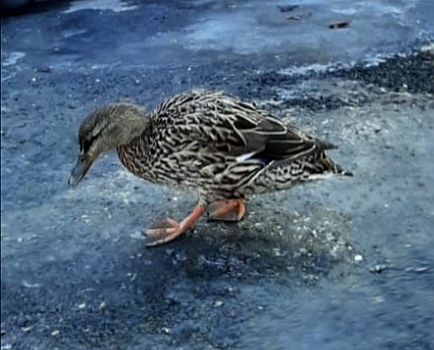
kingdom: Animalia
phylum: Chordata
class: Aves
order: Anseriformes
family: Anatidae
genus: Anas
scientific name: Anas platyrhynchos
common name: Mallard
